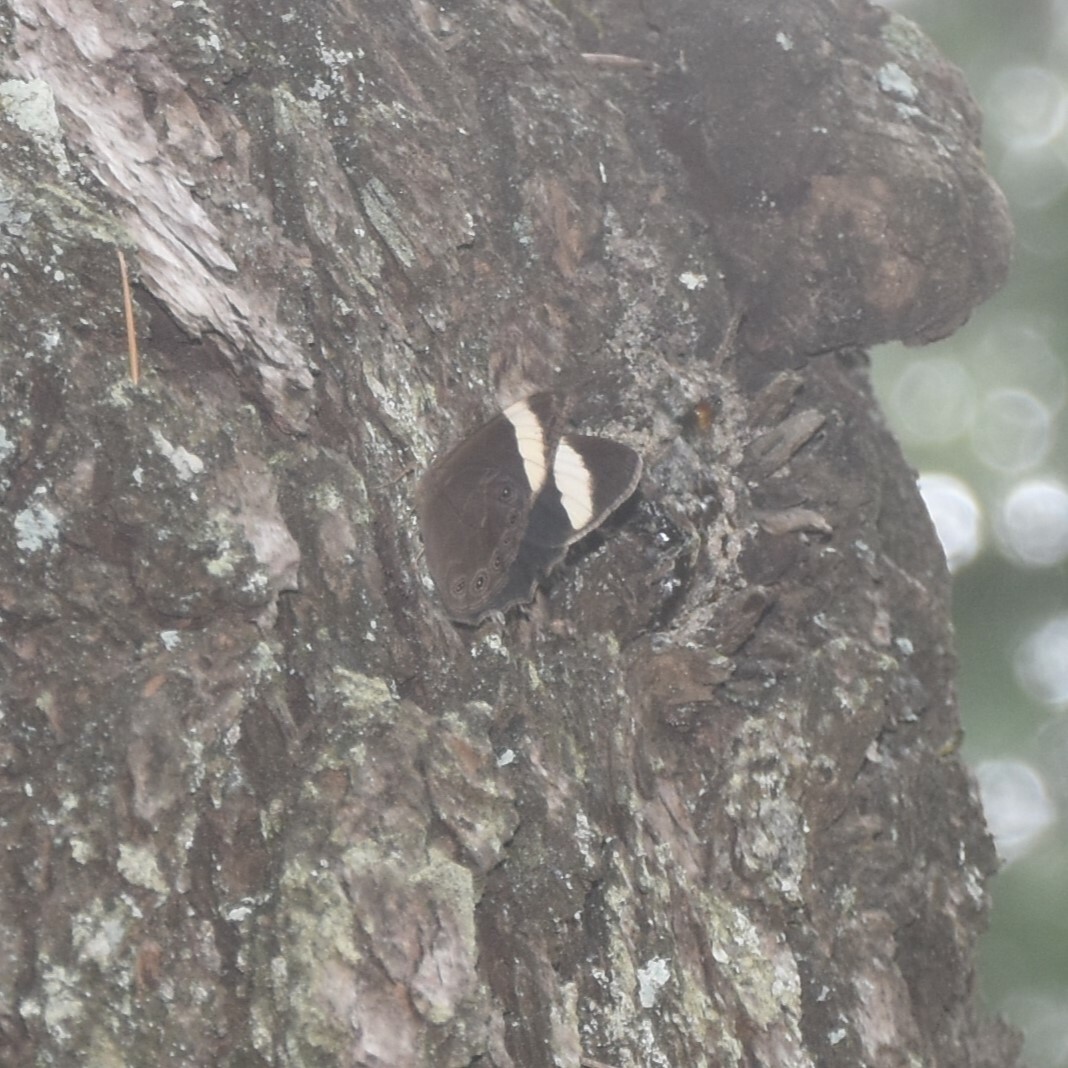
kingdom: Animalia
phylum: Arthropoda
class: Insecta
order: Lepidoptera
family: Nymphalidae
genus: Lethe
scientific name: Lethe verma
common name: Straight-banded treebrown
